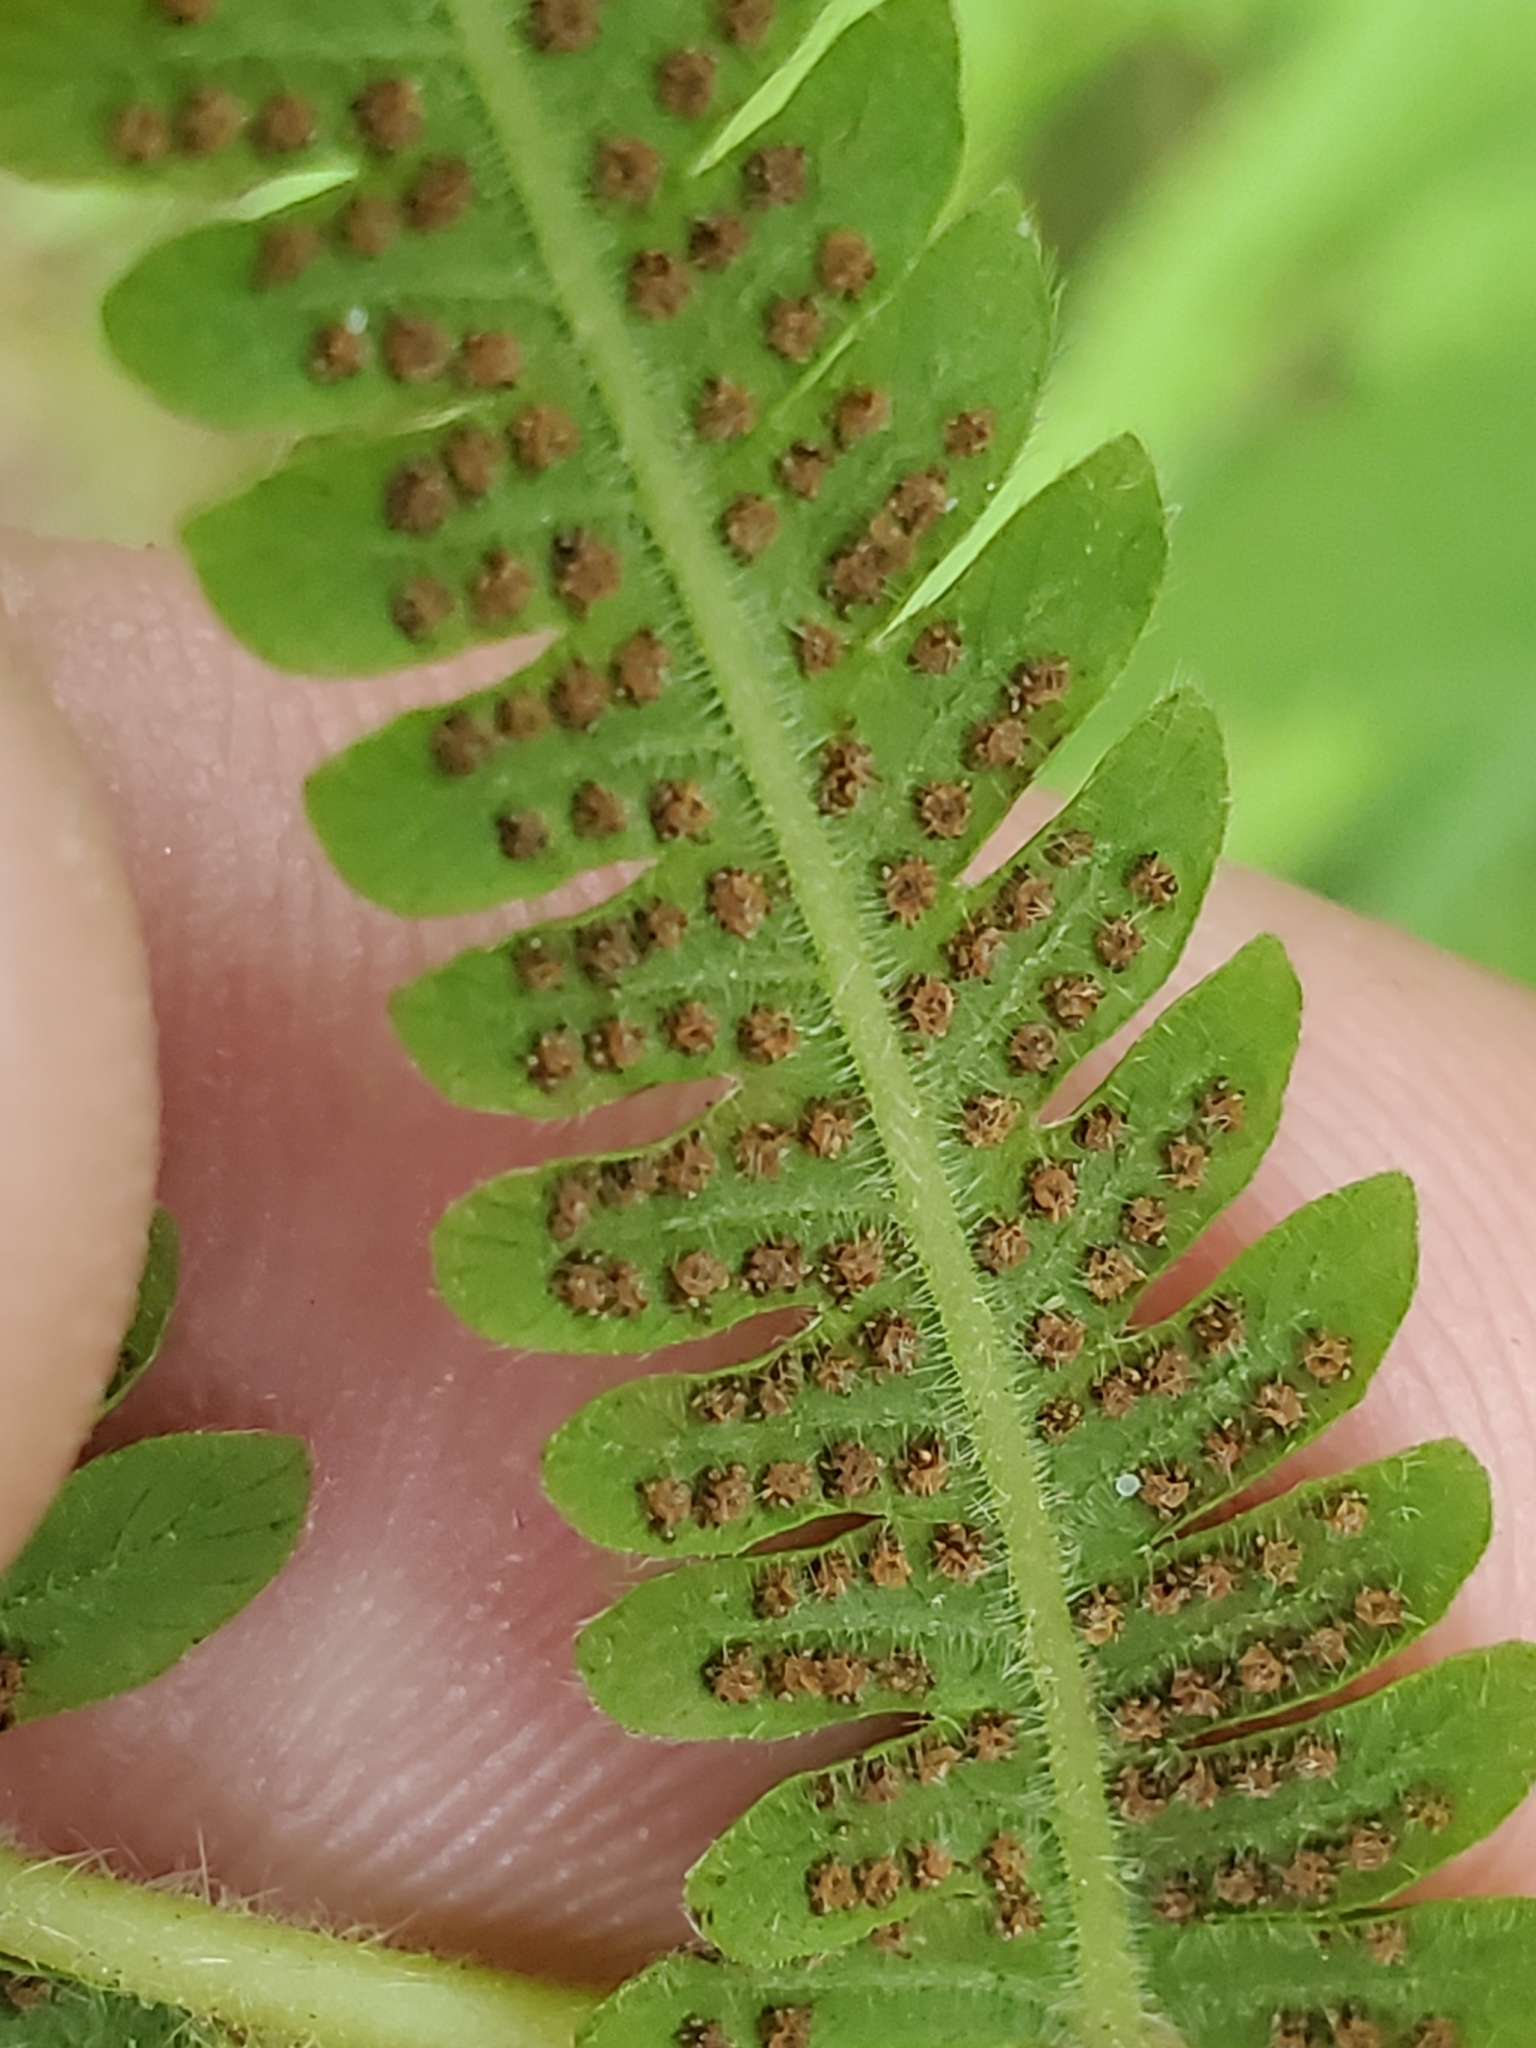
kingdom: Plantae
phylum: Tracheophyta
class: Polypodiopsida
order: Polypodiales
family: Thelypteridaceae
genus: Pelazoneuron
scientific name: Pelazoneuron kunthii
